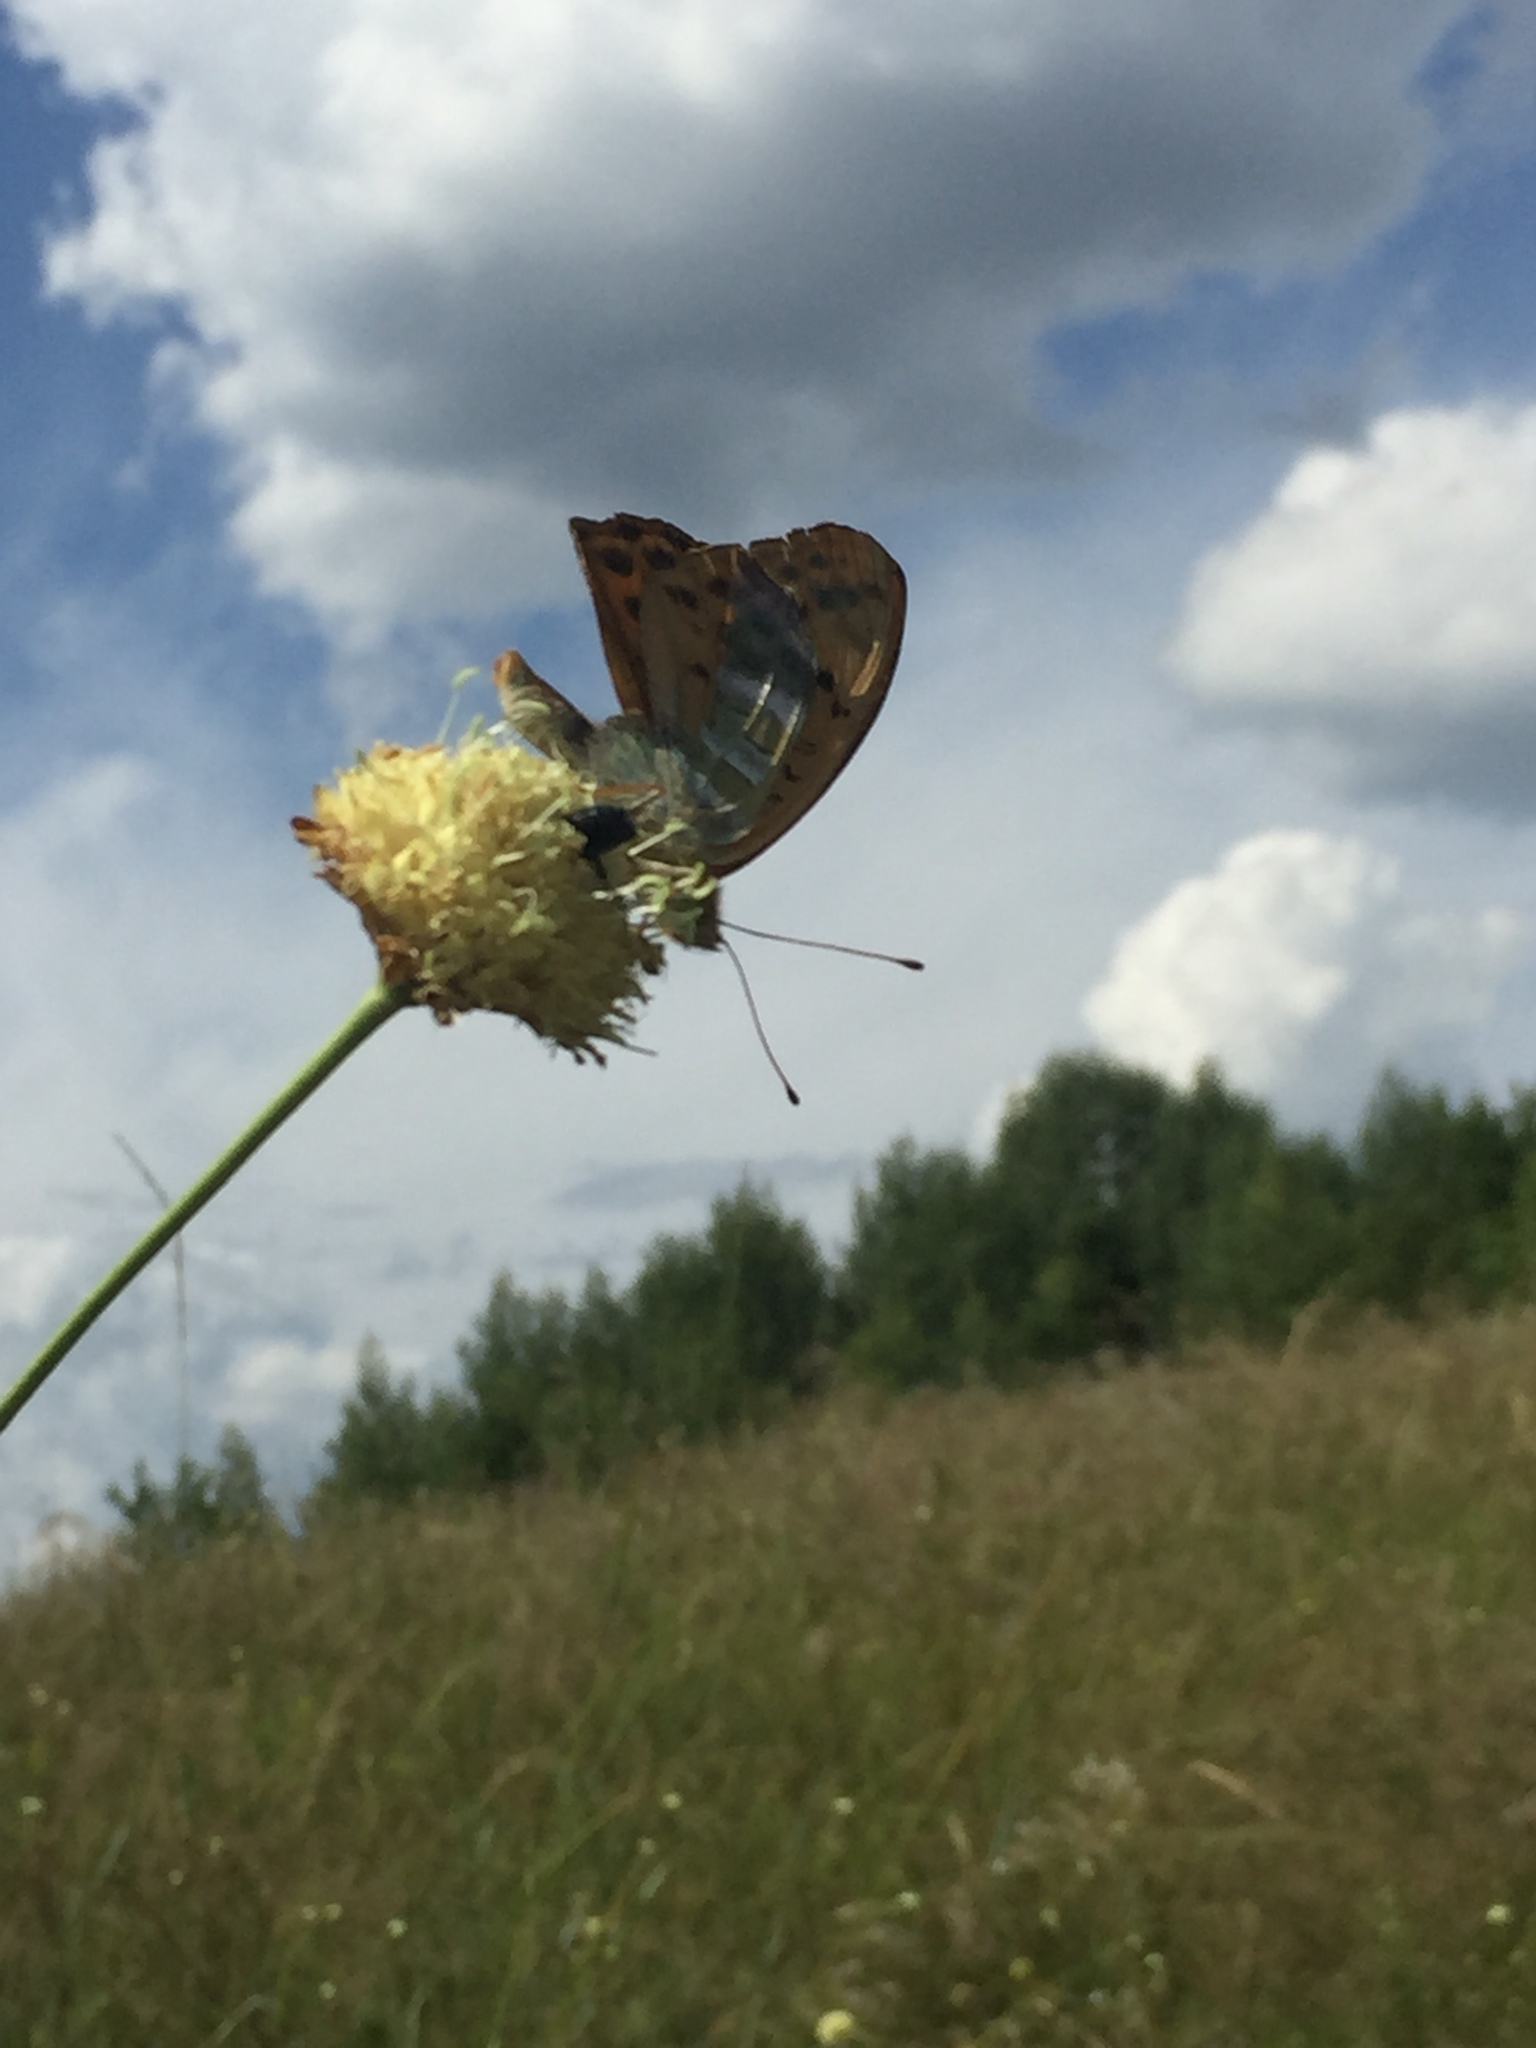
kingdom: Animalia
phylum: Arthropoda
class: Insecta
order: Lepidoptera
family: Nymphalidae
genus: Argynnis
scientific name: Argynnis paphia
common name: Silver-washed fritillary
